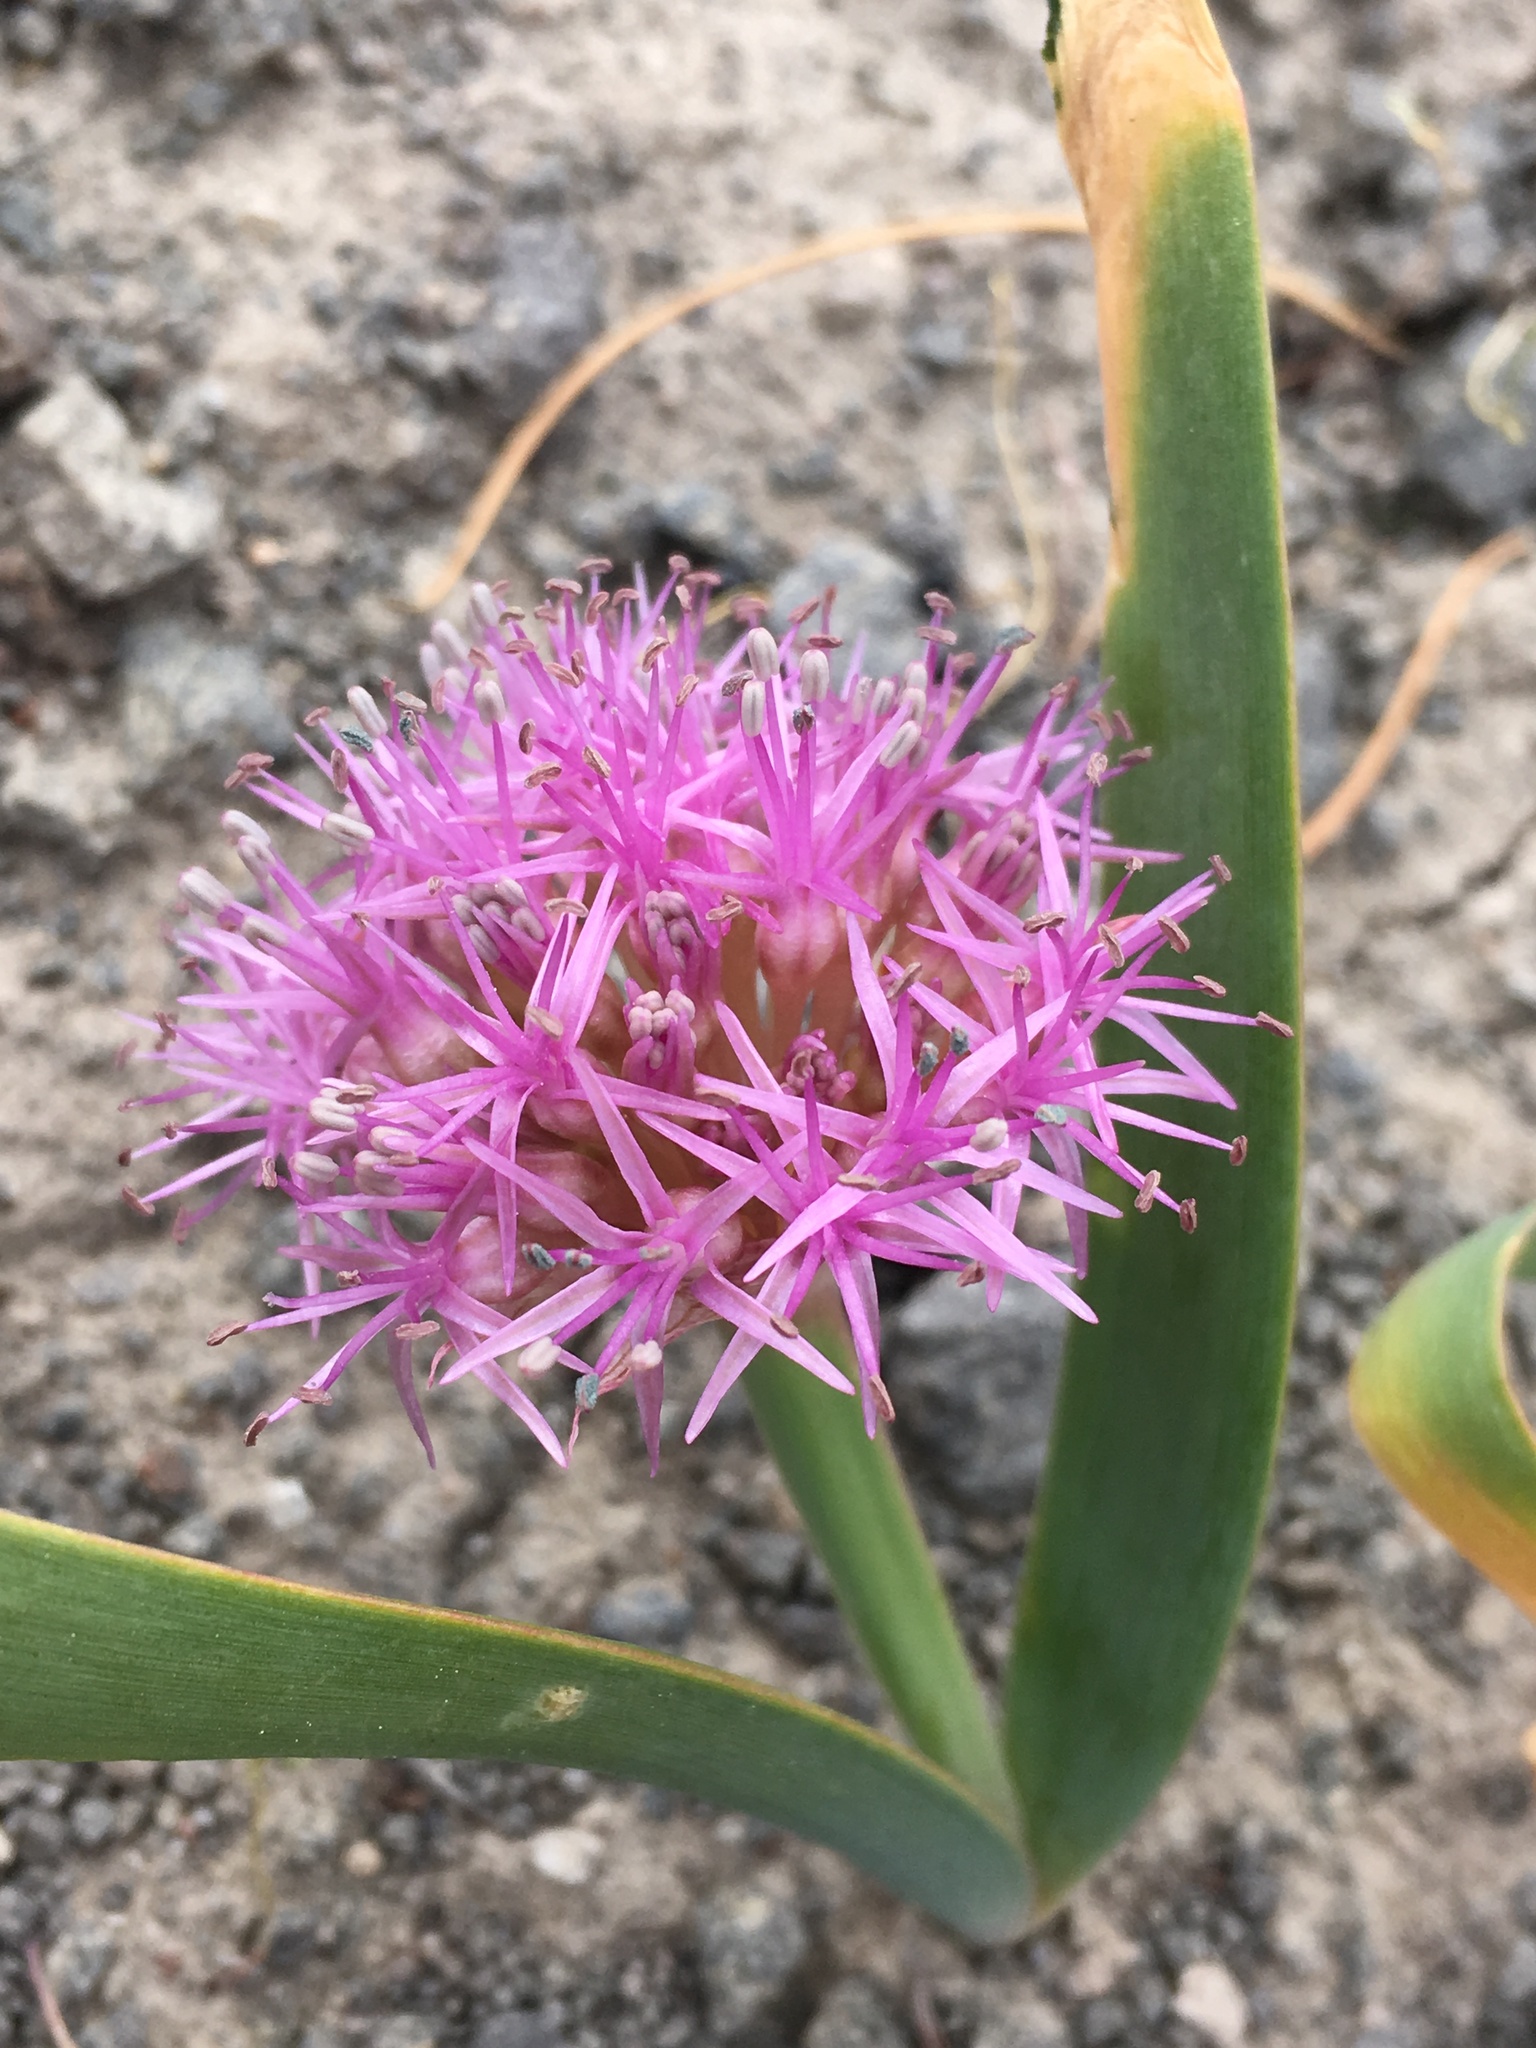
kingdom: Plantae
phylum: Tracheophyta
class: Liliopsida
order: Asparagales
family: Amaryllidaceae
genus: Allium
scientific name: Allium platycaule
